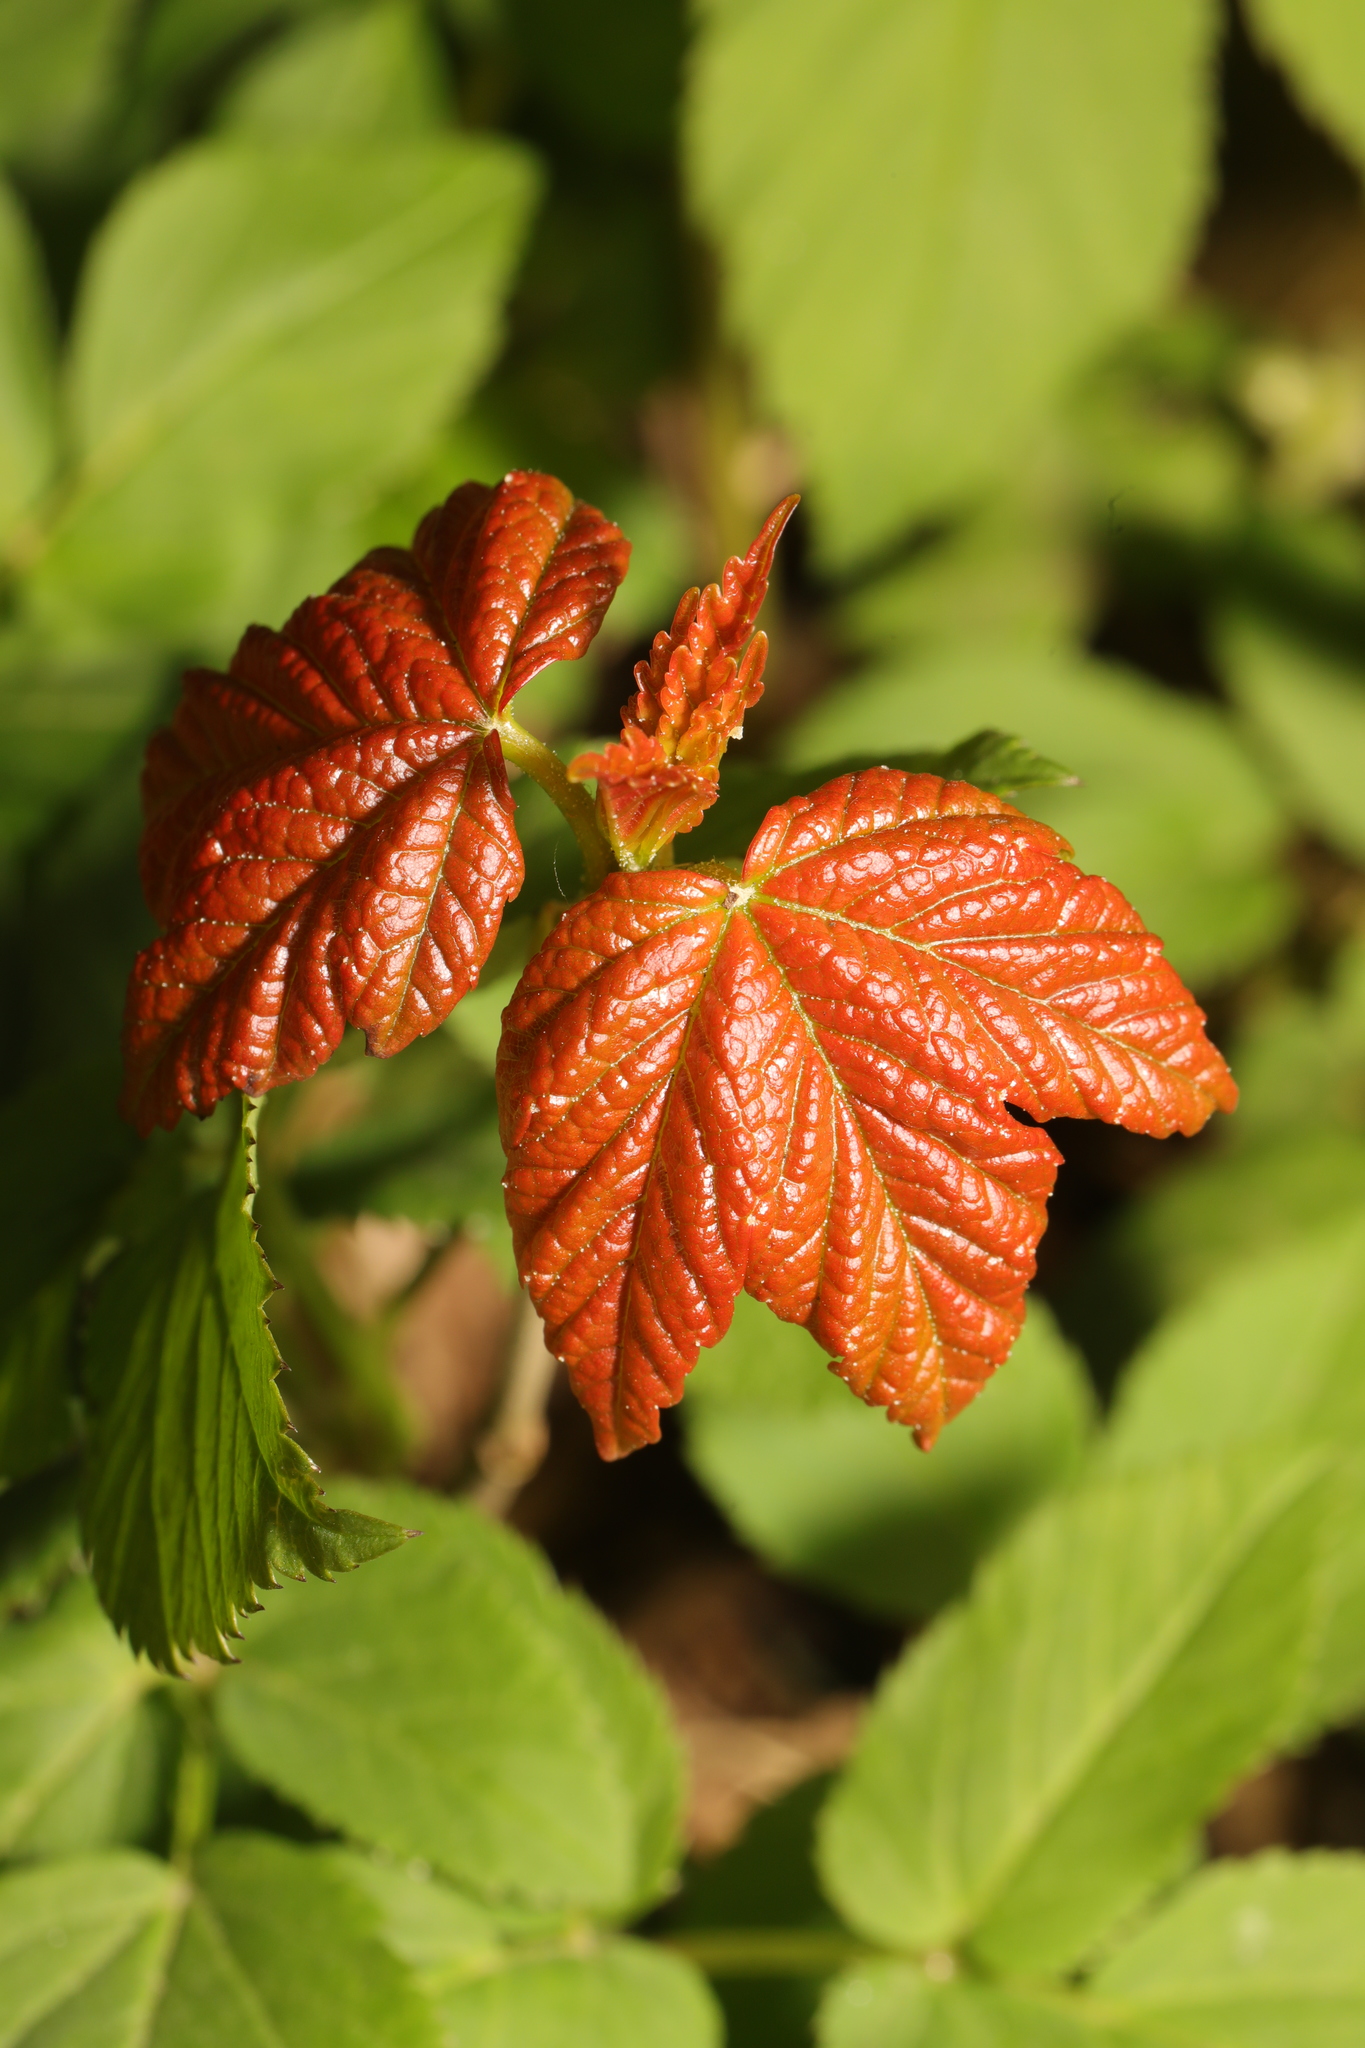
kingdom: Plantae
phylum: Tracheophyta
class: Magnoliopsida
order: Sapindales
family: Sapindaceae
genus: Acer
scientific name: Acer pseudoplatanus
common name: Sycamore
